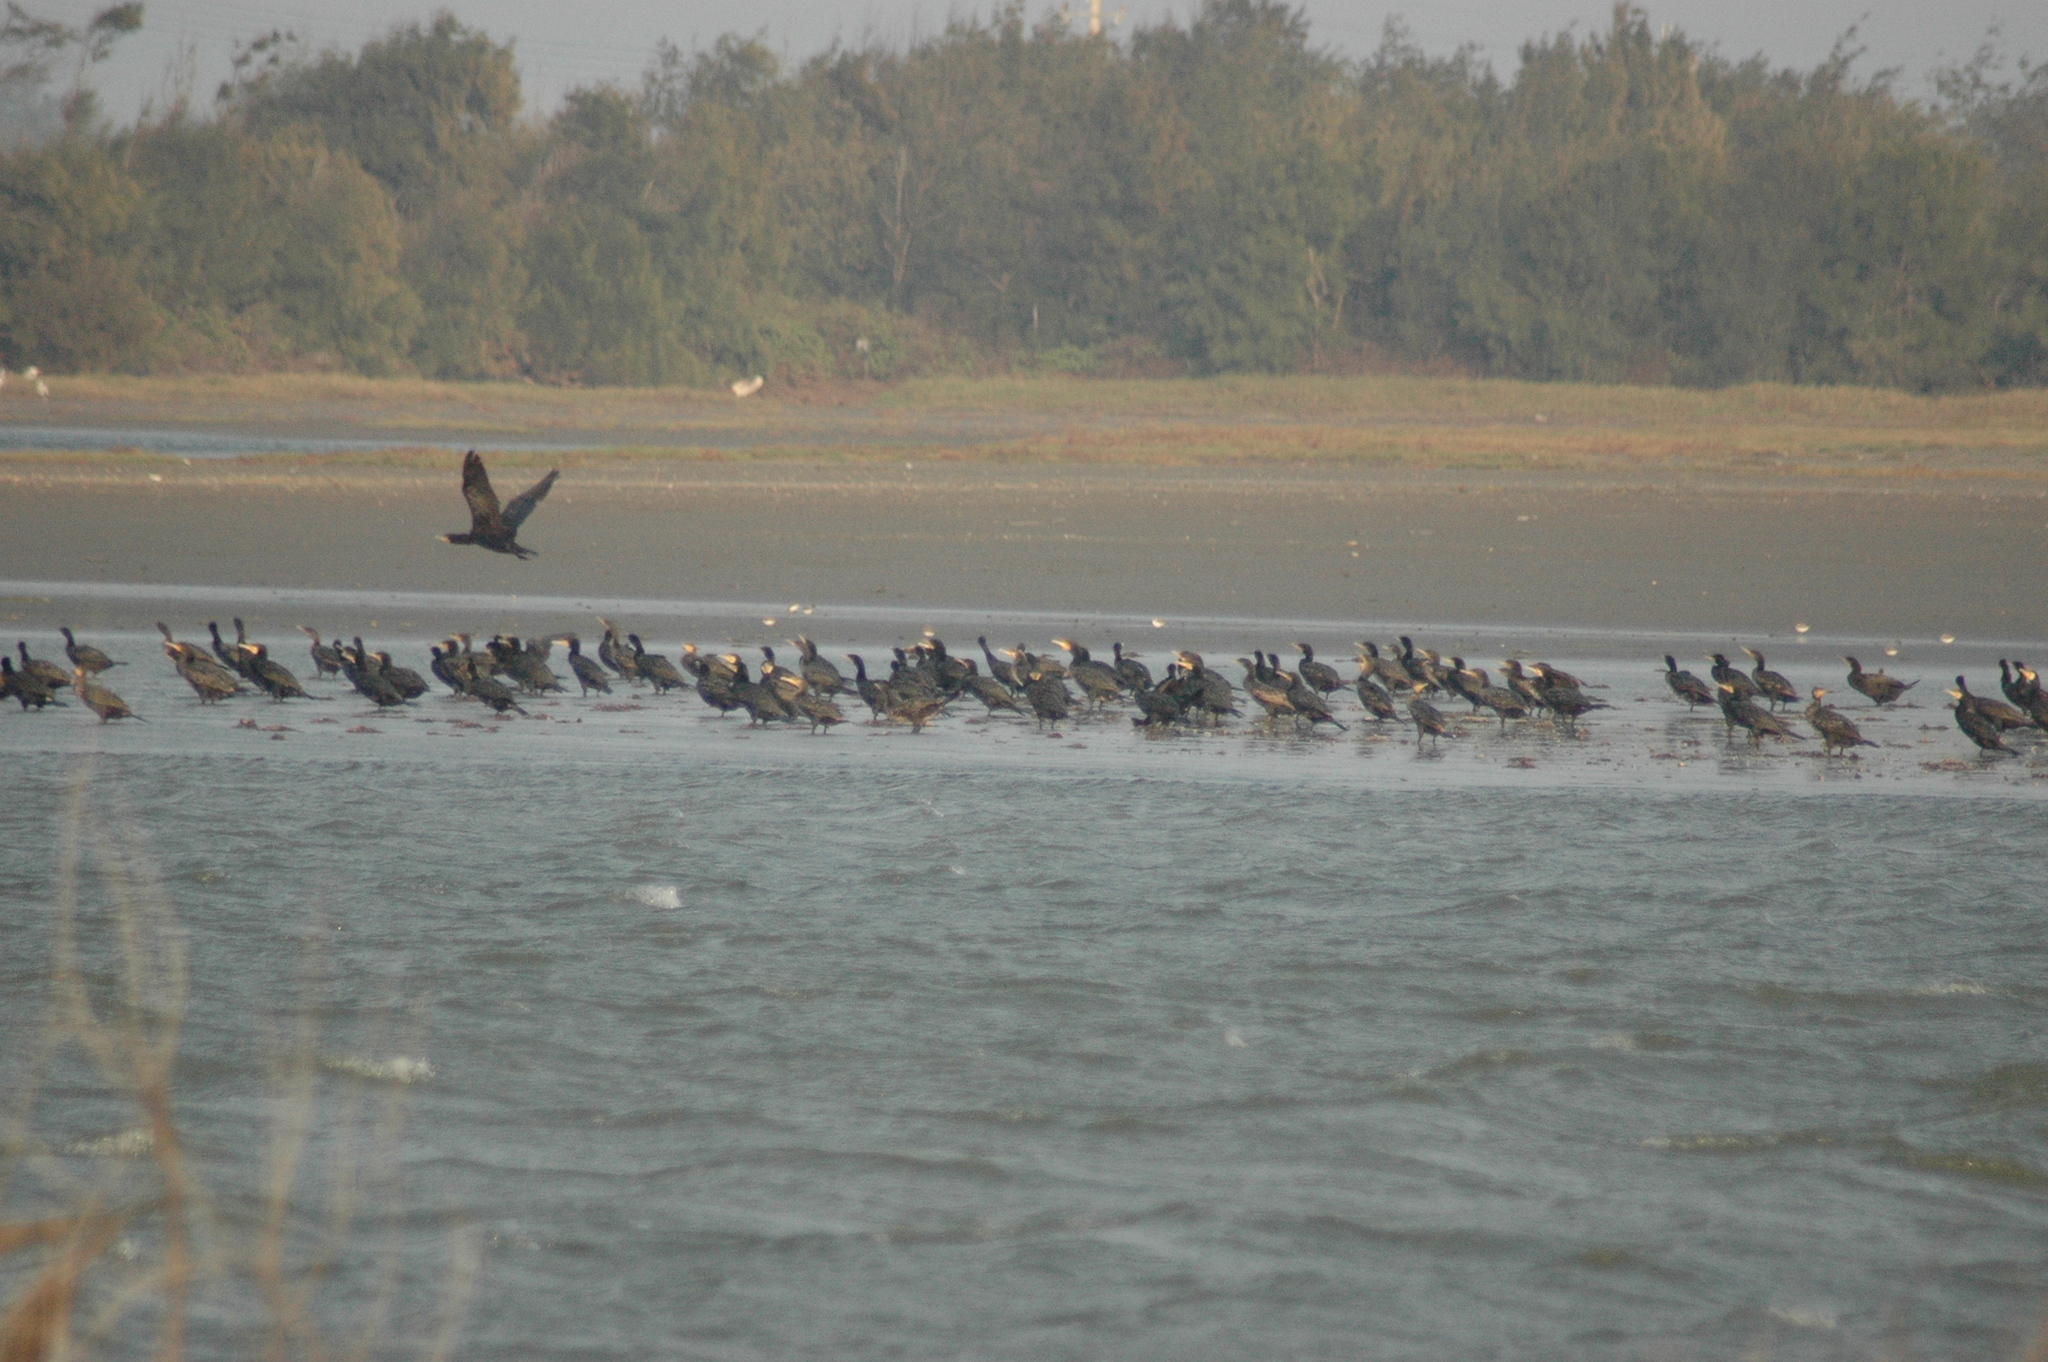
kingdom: Animalia
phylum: Chordata
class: Aves
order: Suliformes
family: Phalacrocoracidae
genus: Phalacrocorax
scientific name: Phalacrocorax carbo
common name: Great cormorant
